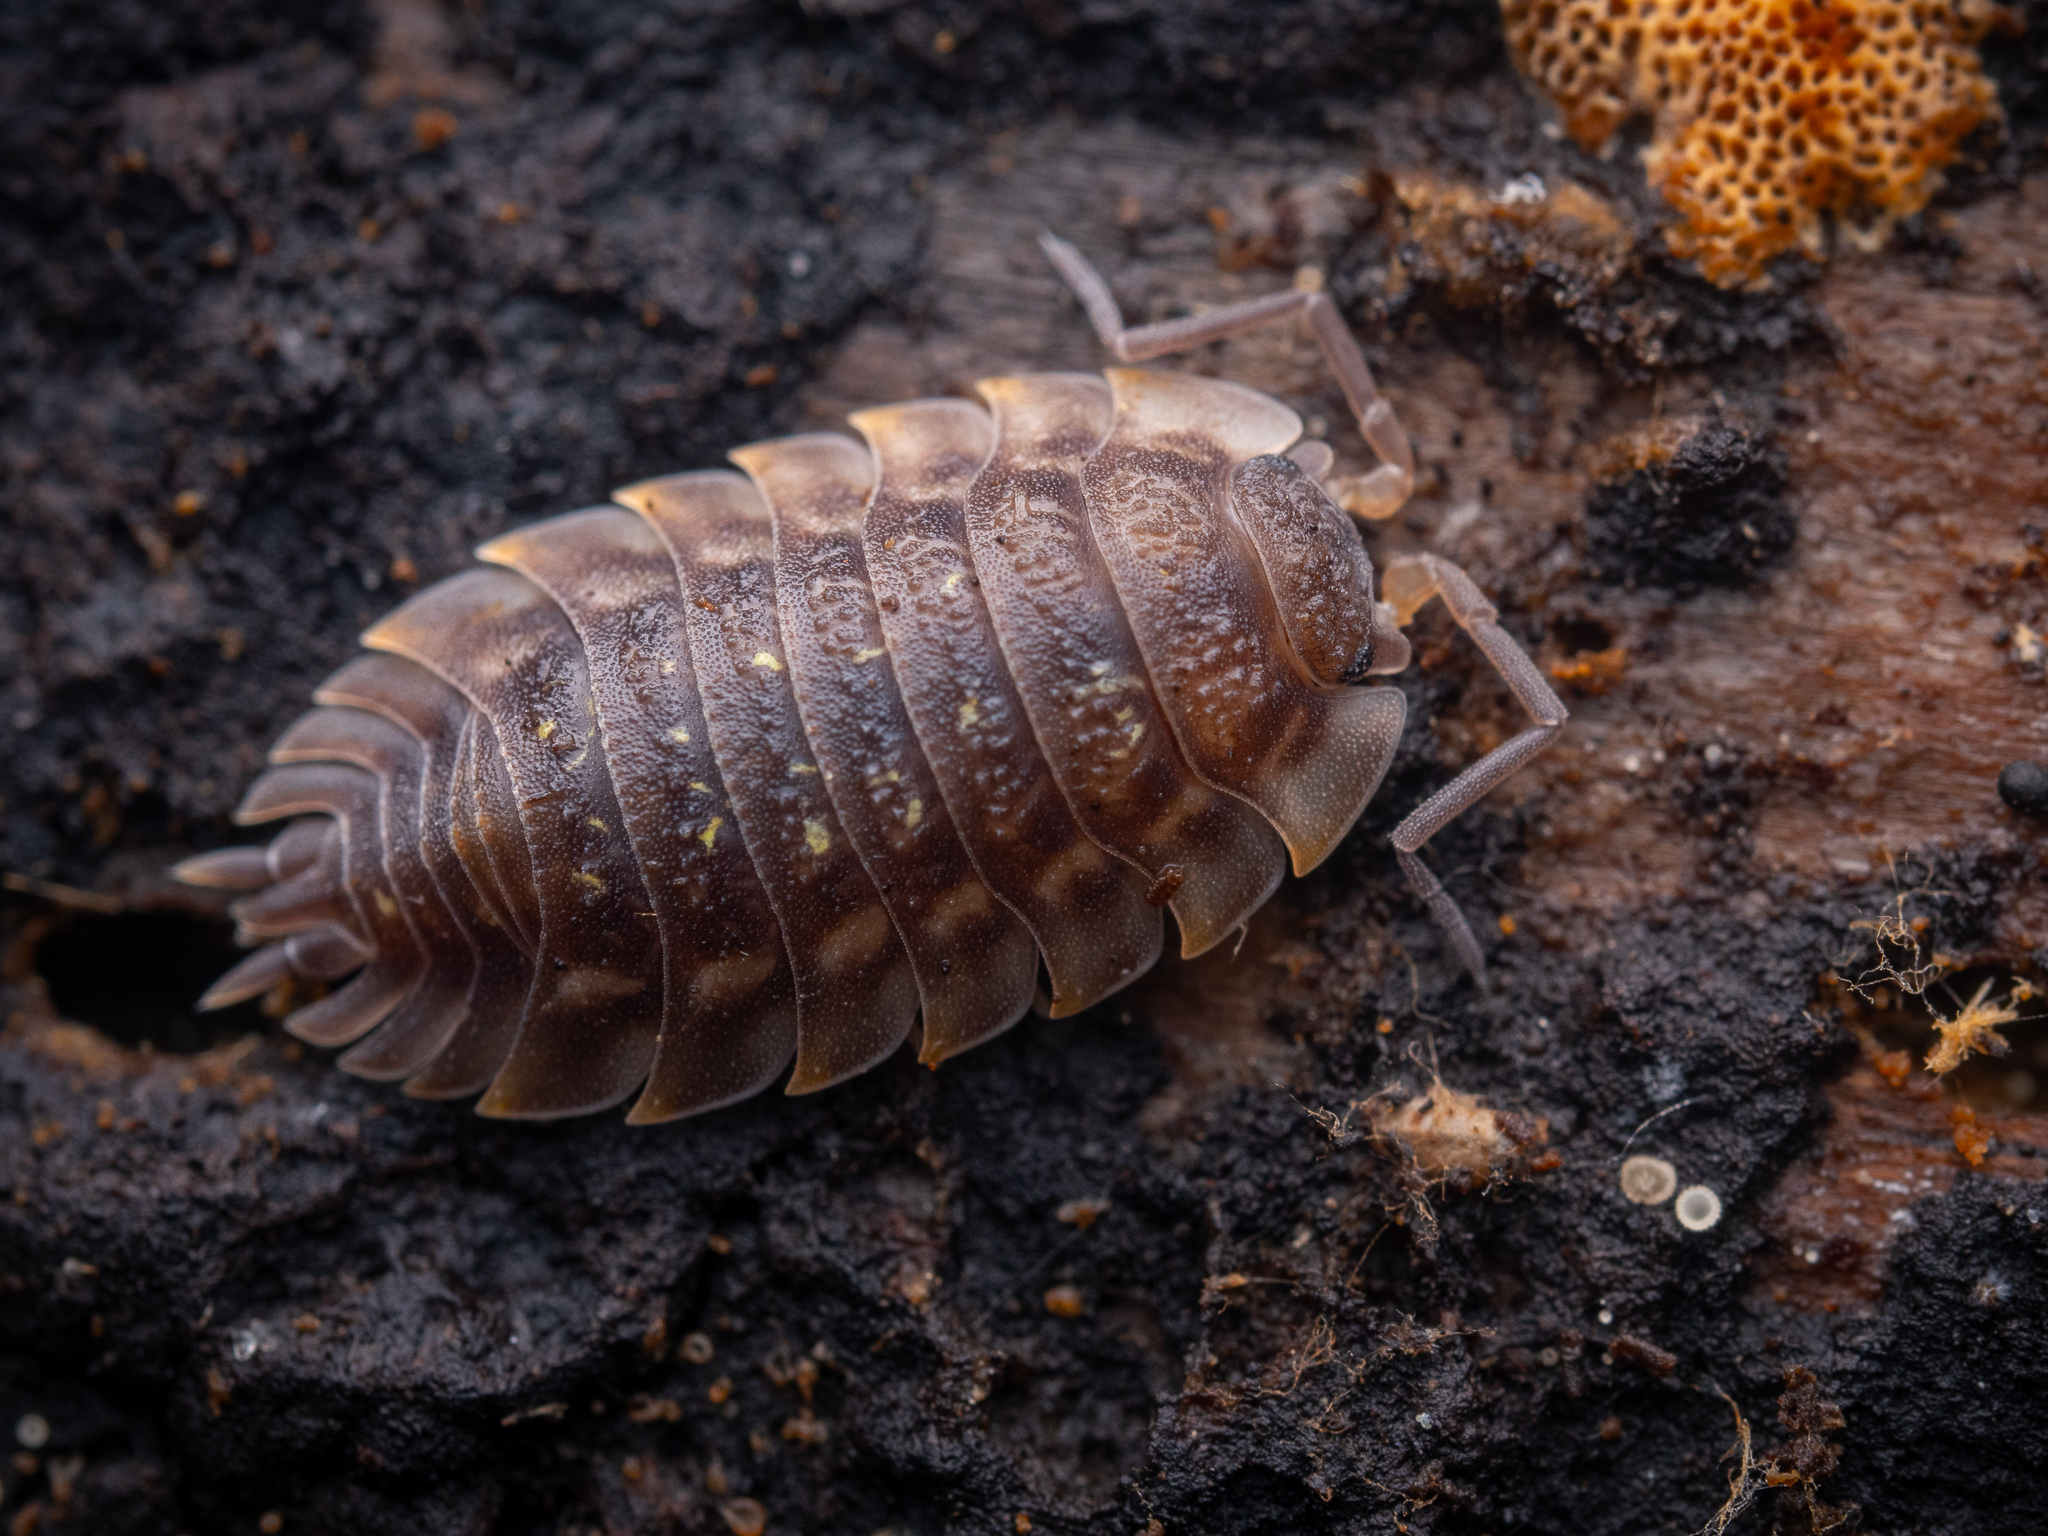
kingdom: Animalia
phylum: Arthropoda
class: Malacostraca
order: Isopoda
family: Oniscidae
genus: Oniscus
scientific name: Oniscus asellus
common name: Common shiny woodlouse
